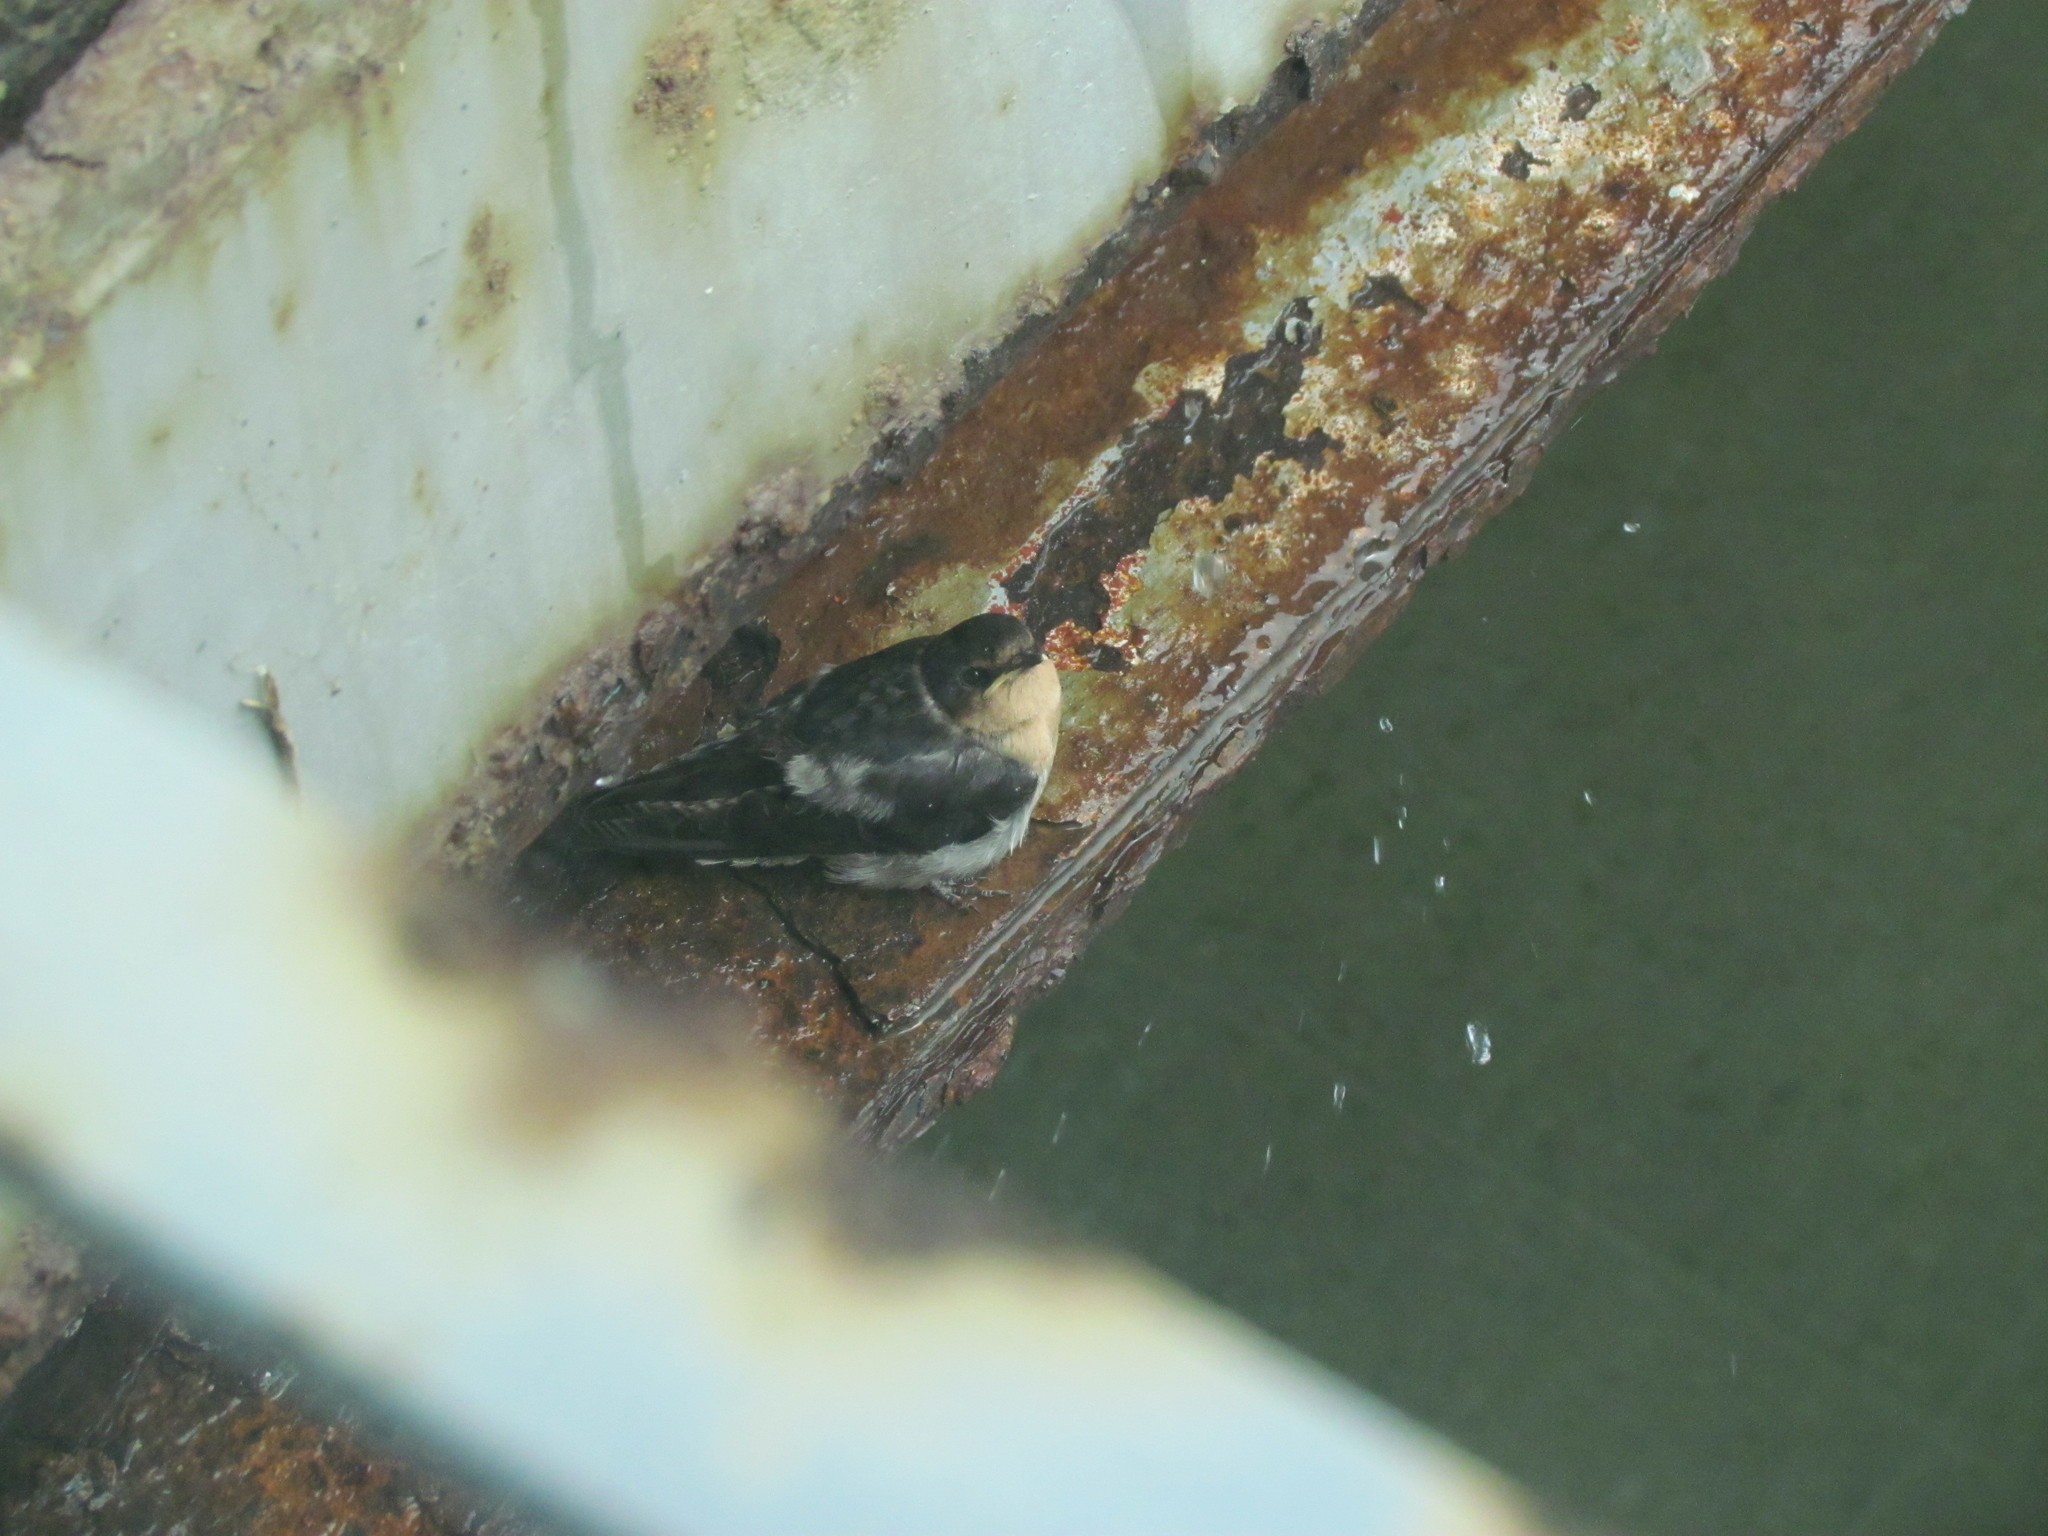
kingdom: Animalia
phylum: Chordata
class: Aves
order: Passeriformes
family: Hirundinidae
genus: Hirundo
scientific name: Hirundo tahitica
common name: Pacific swallow
